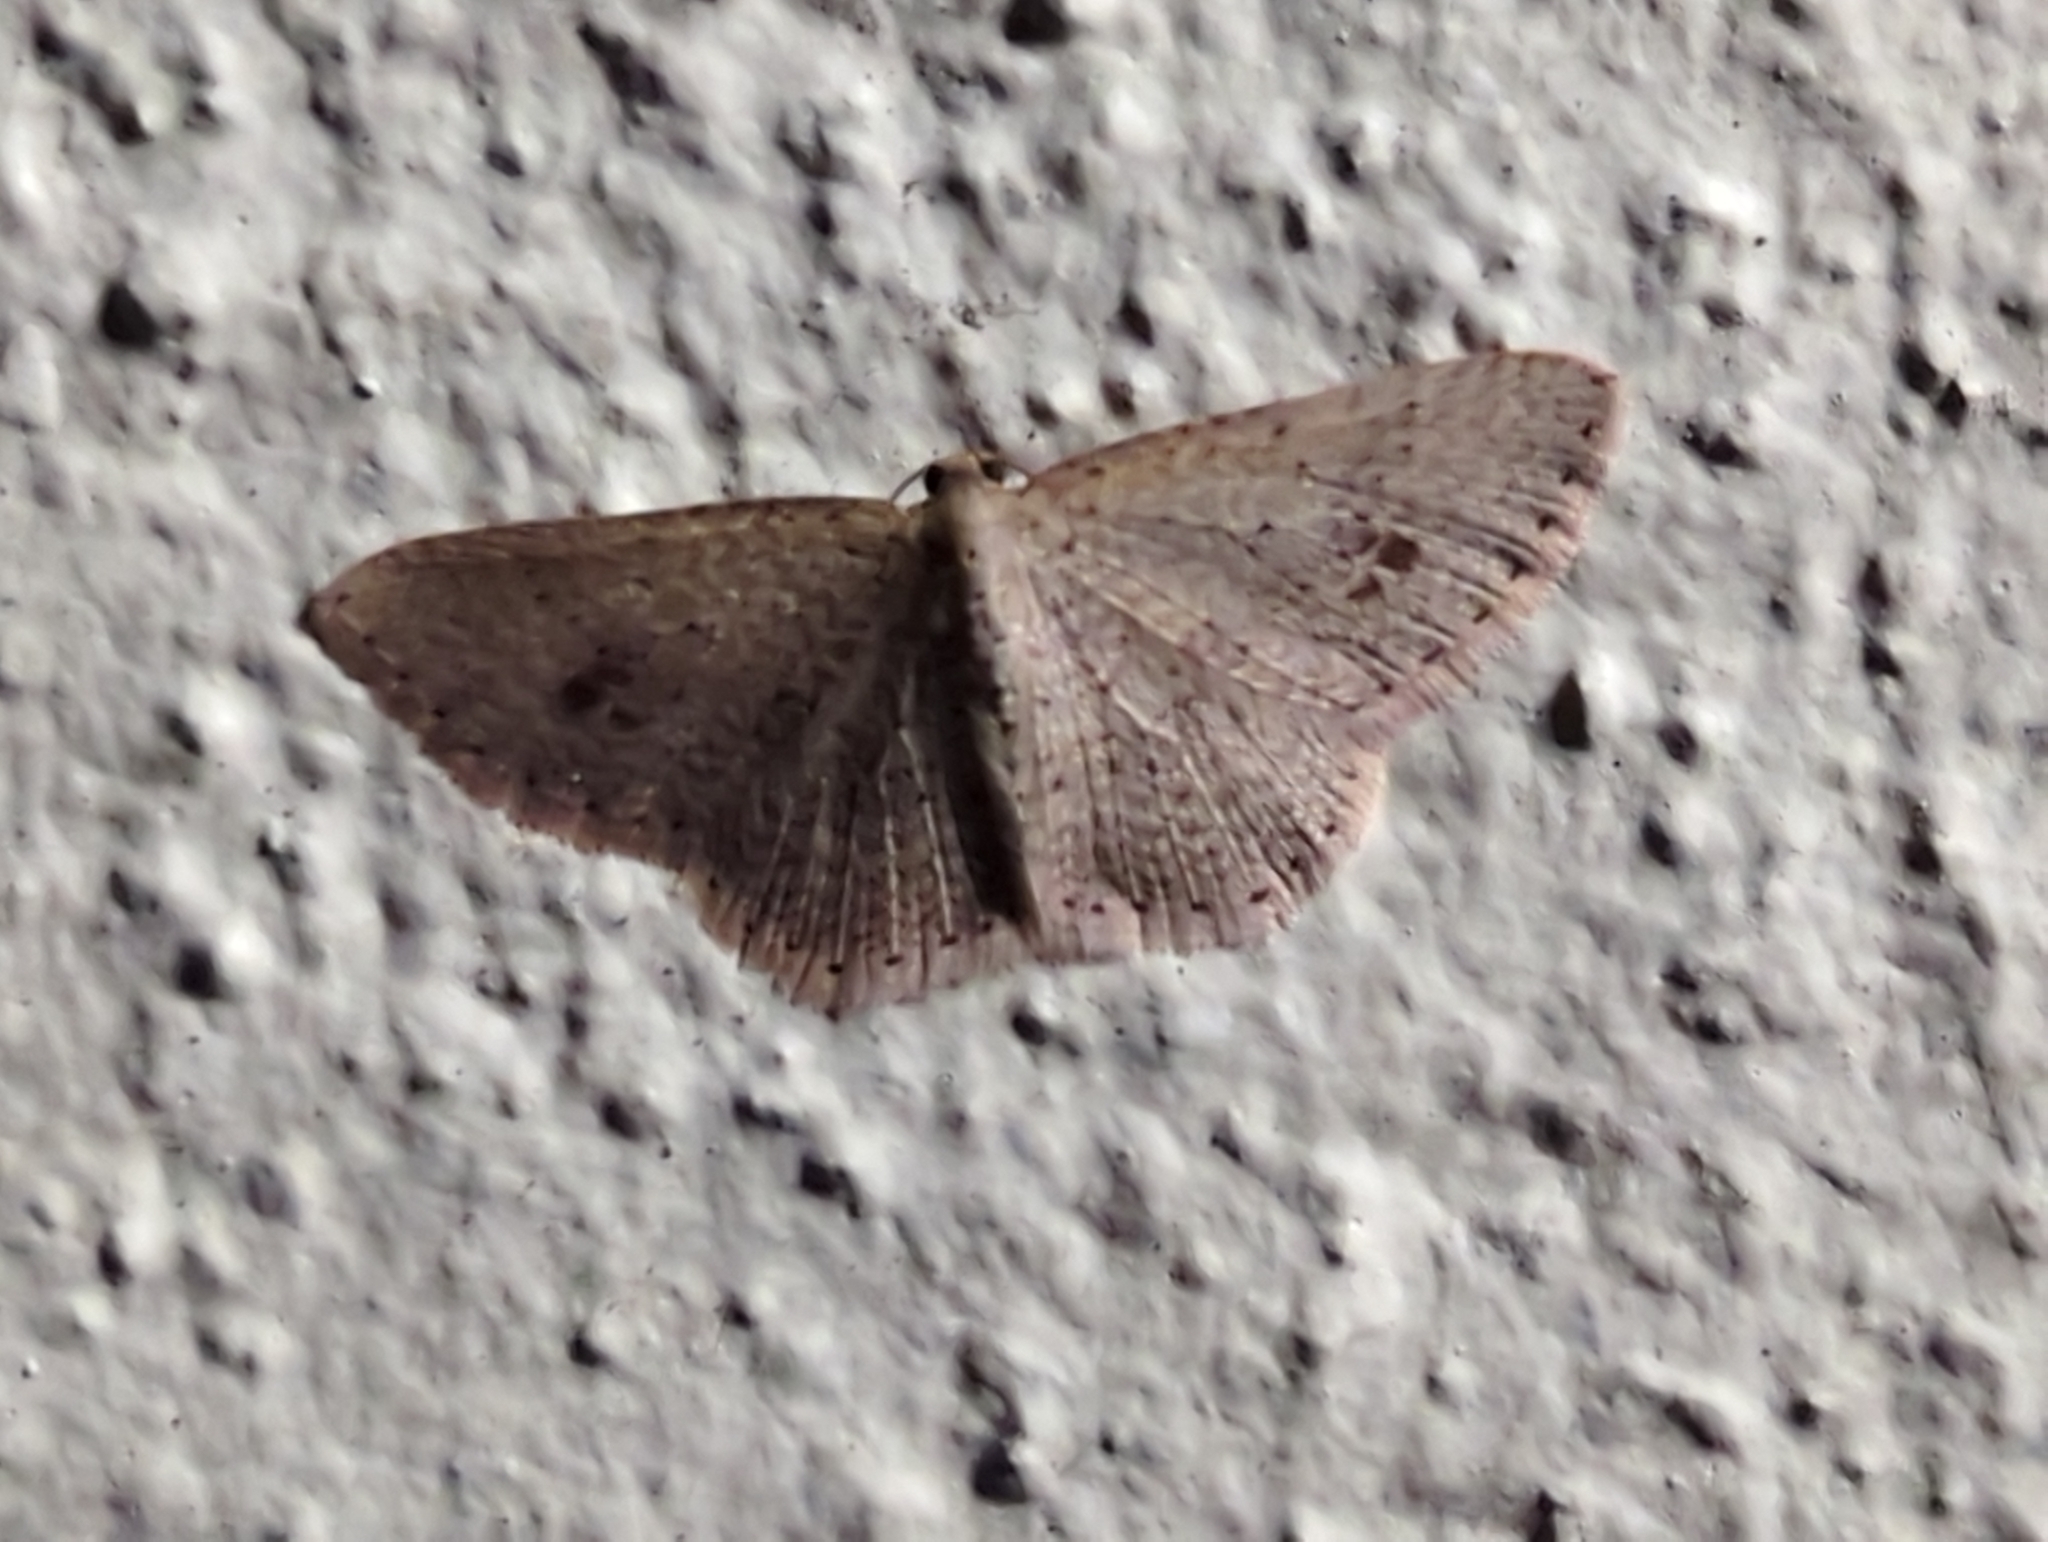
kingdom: Animalia
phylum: Arthropoda
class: Insecta
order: Lepidoptera
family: Geometridae
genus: Epicyme
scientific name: Epicyme rubropunctaria
